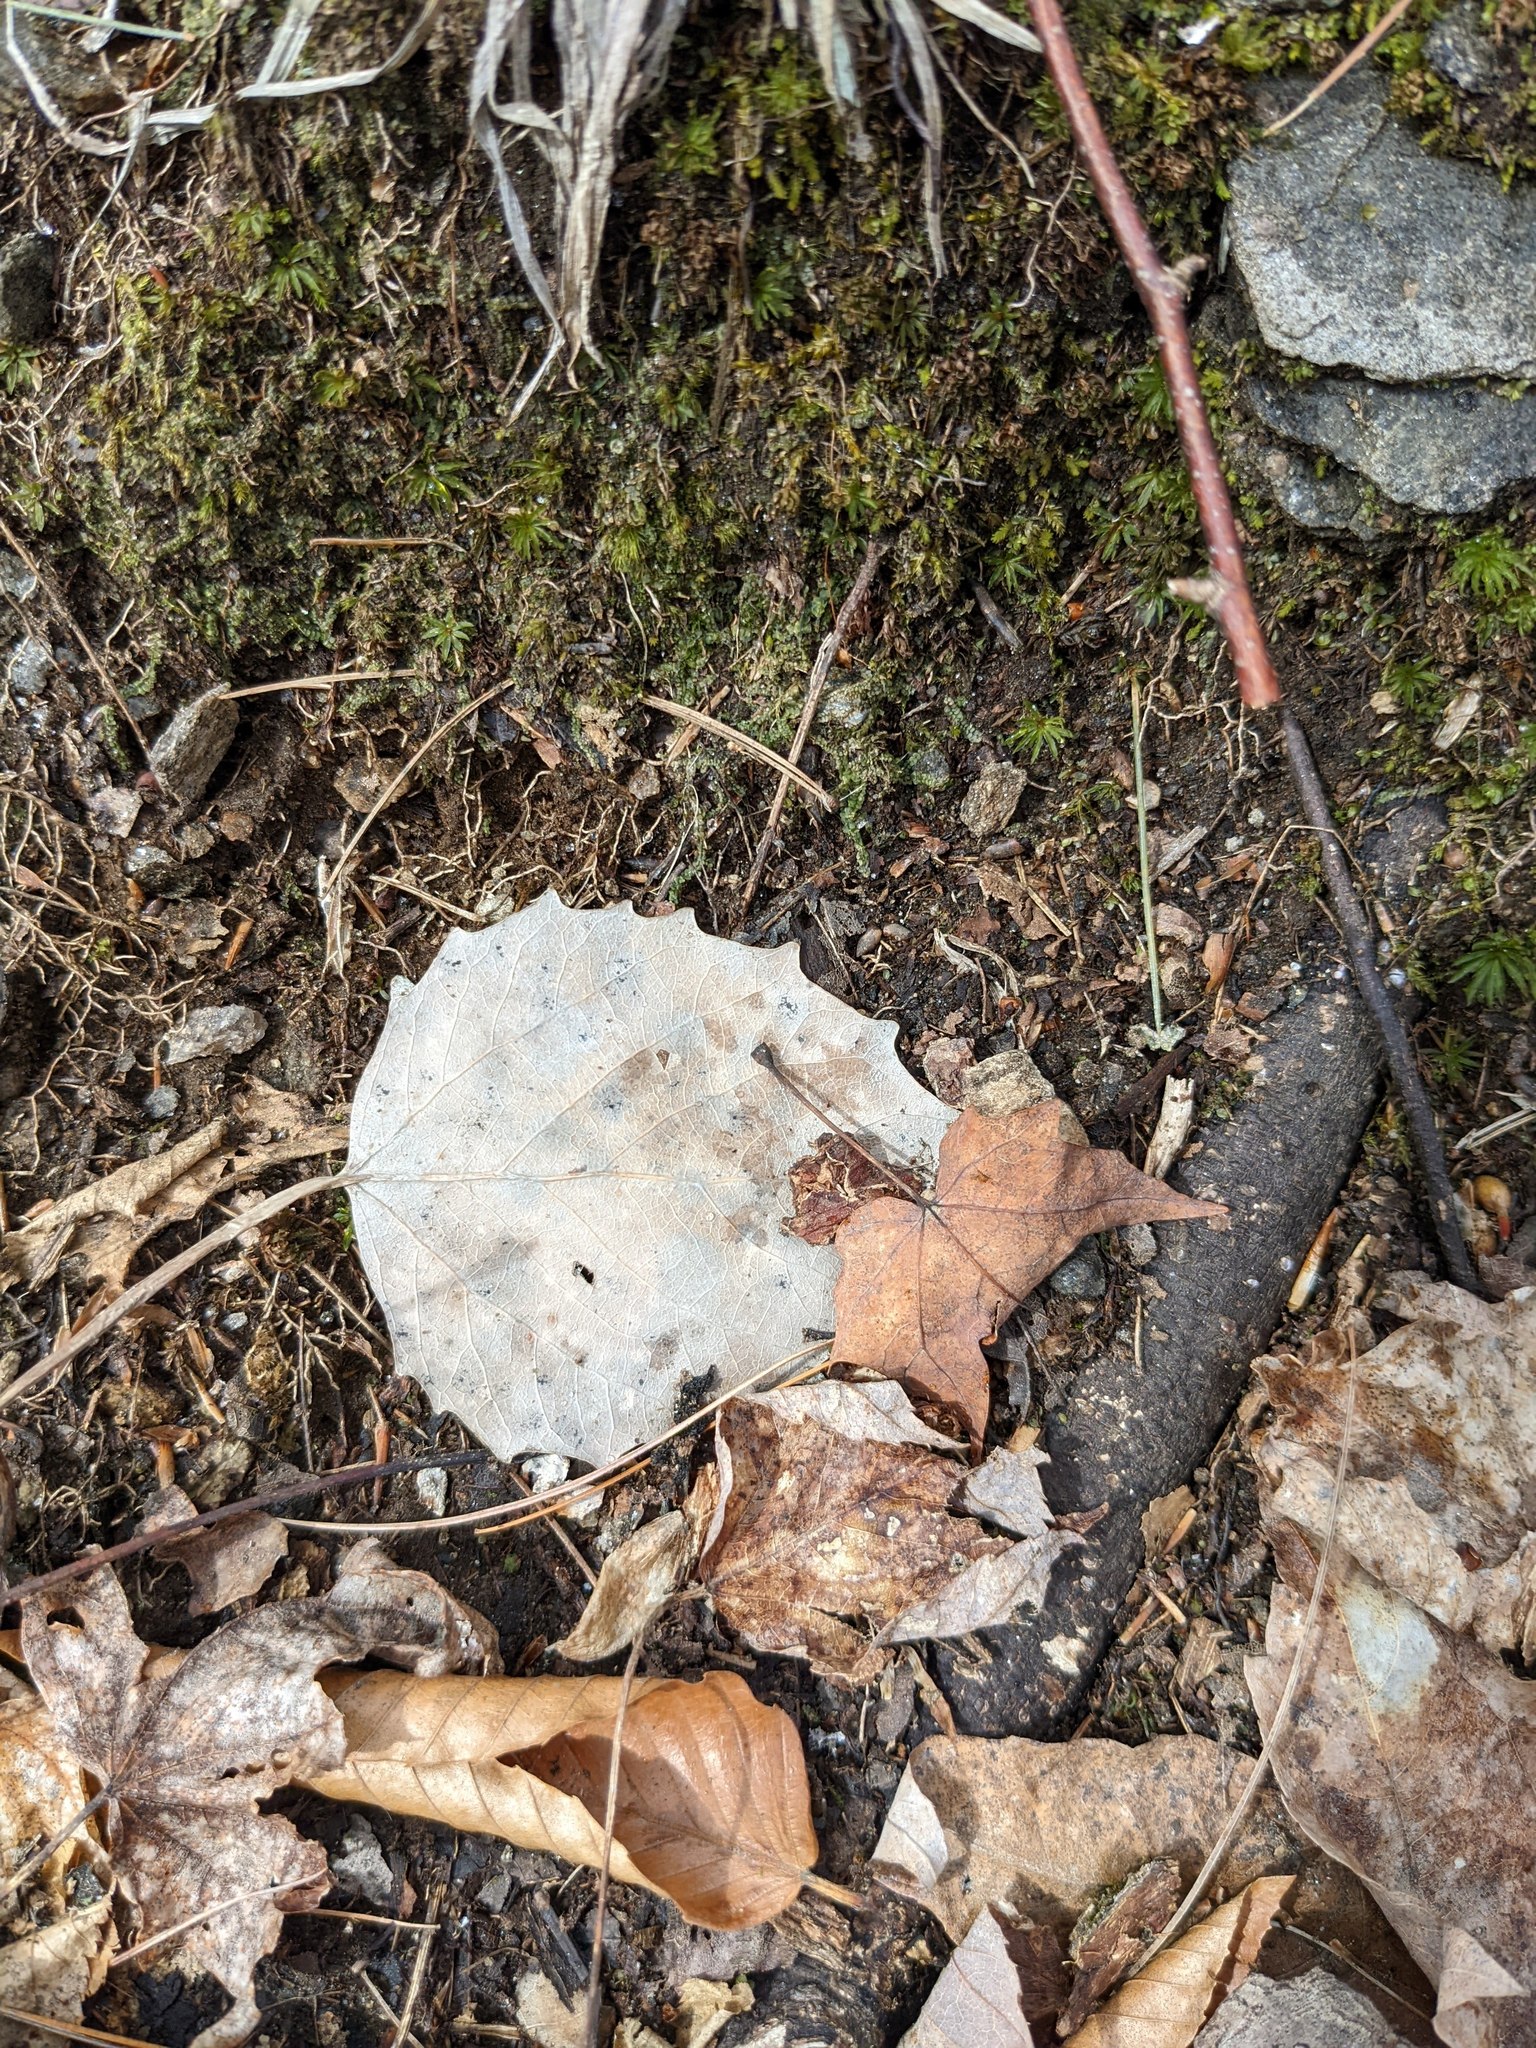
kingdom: Plantae
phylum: Tracheophyta
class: Magnoliopsida
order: Malpighiales
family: Salicaceae
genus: Populus
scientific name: Populus grandidentata
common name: Bigtooth aspen
